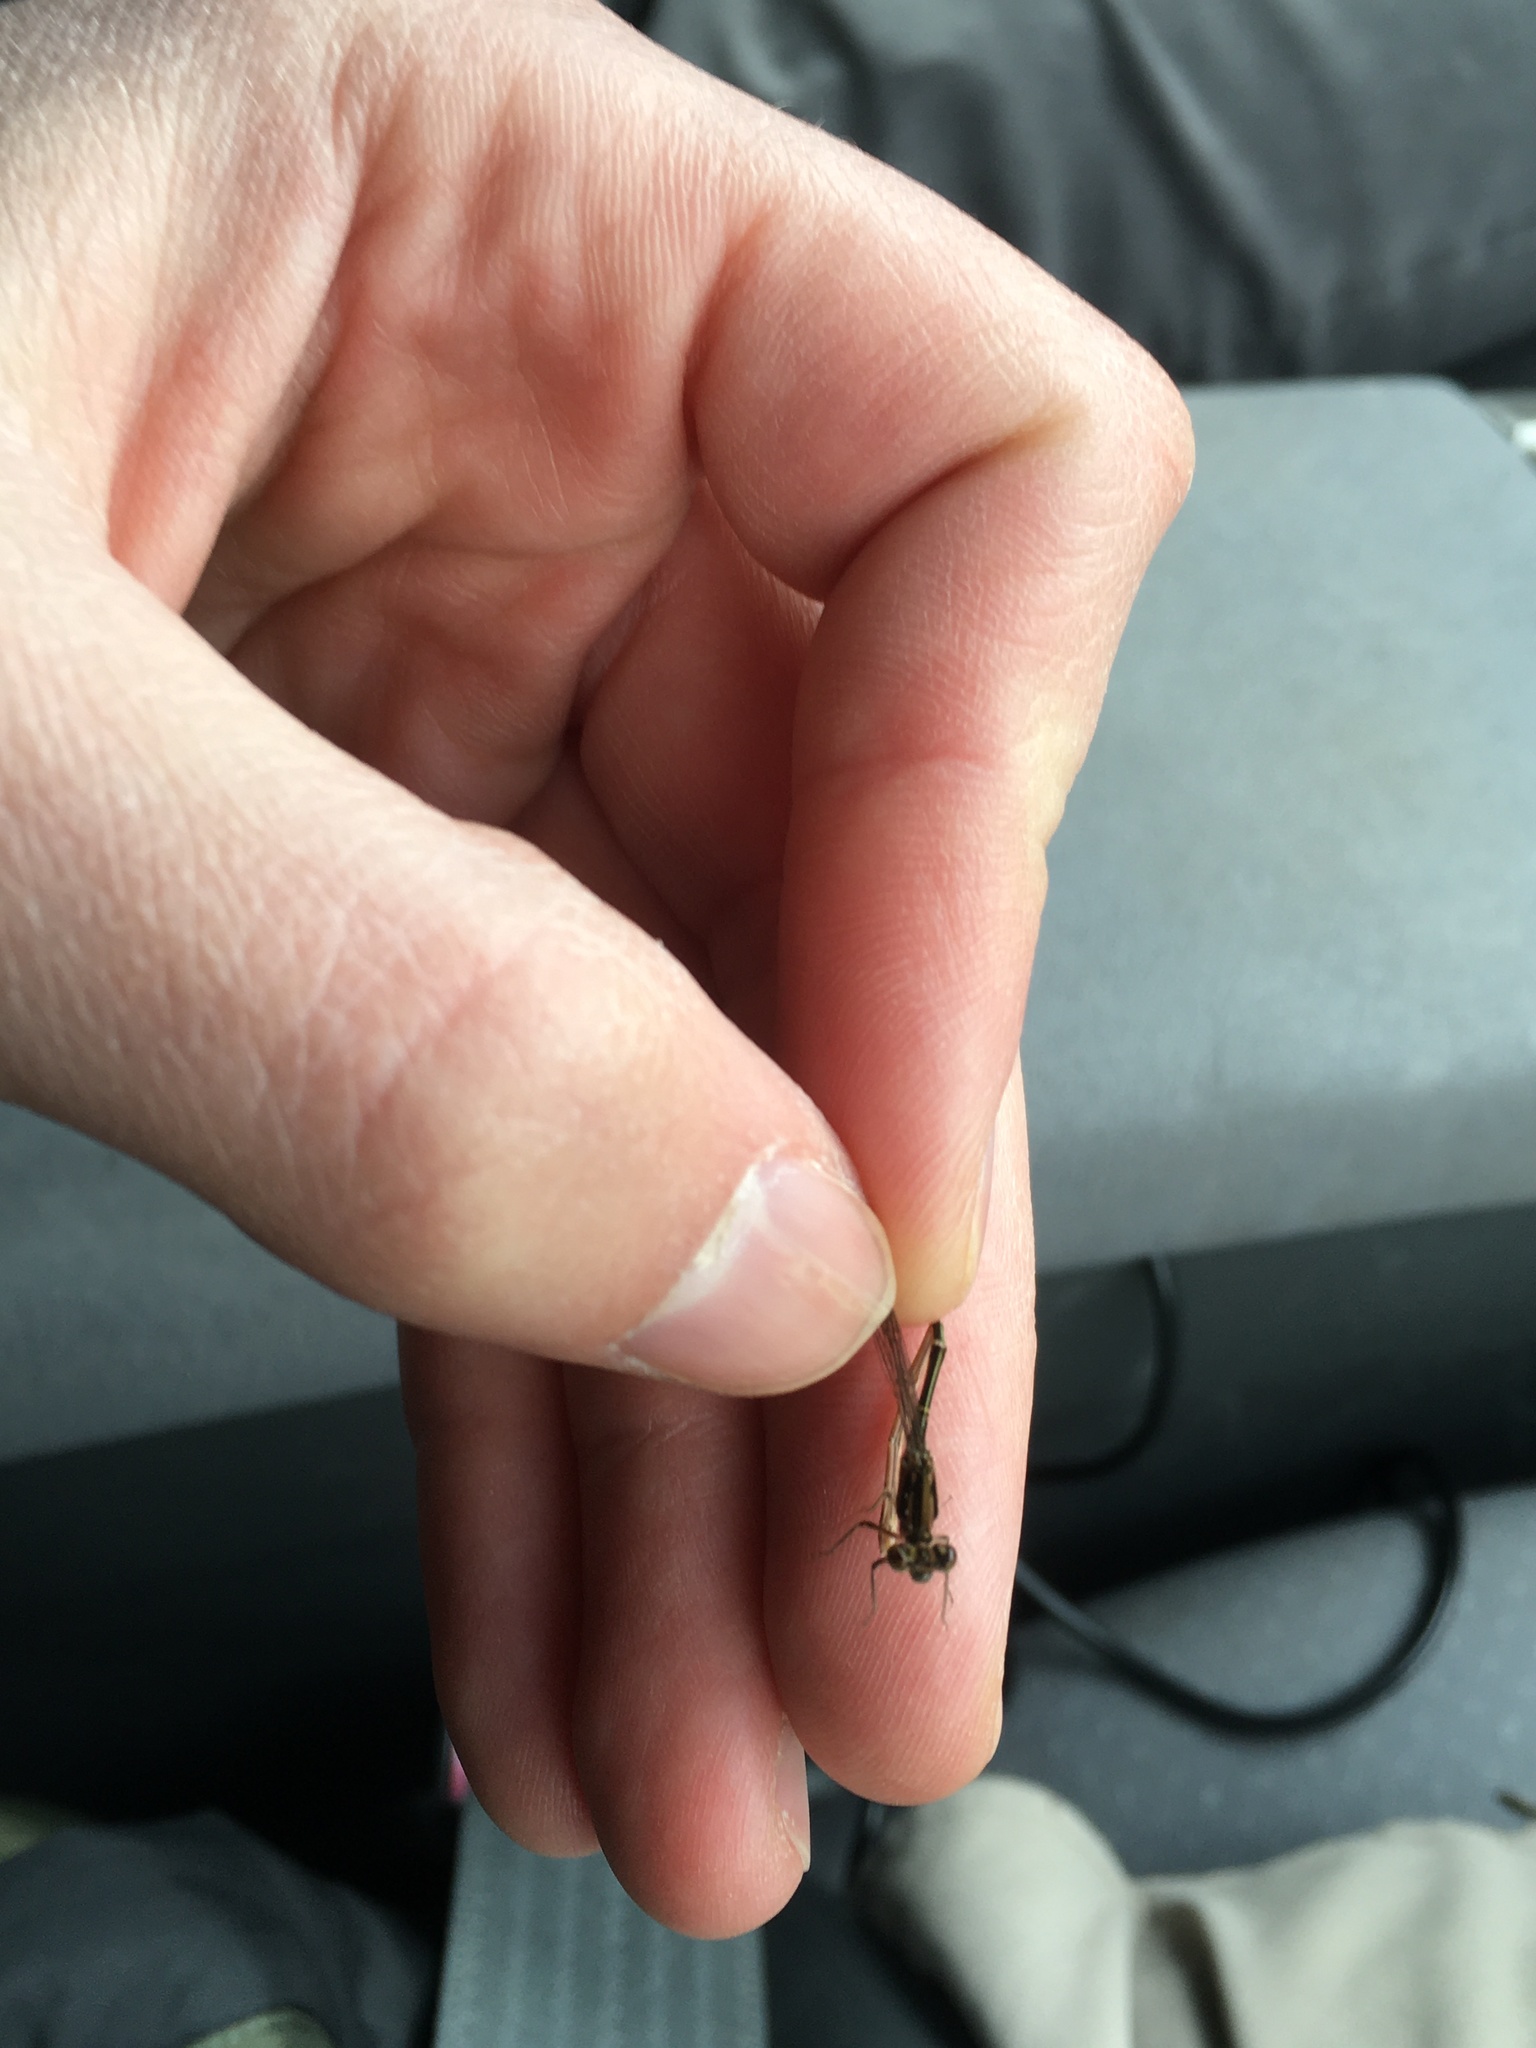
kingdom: Animalia
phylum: Arthropoda
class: Insecta
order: Odonata
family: Coenagrionidae
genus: Ischnura
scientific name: Ischnura posita
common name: Fragile forktail
